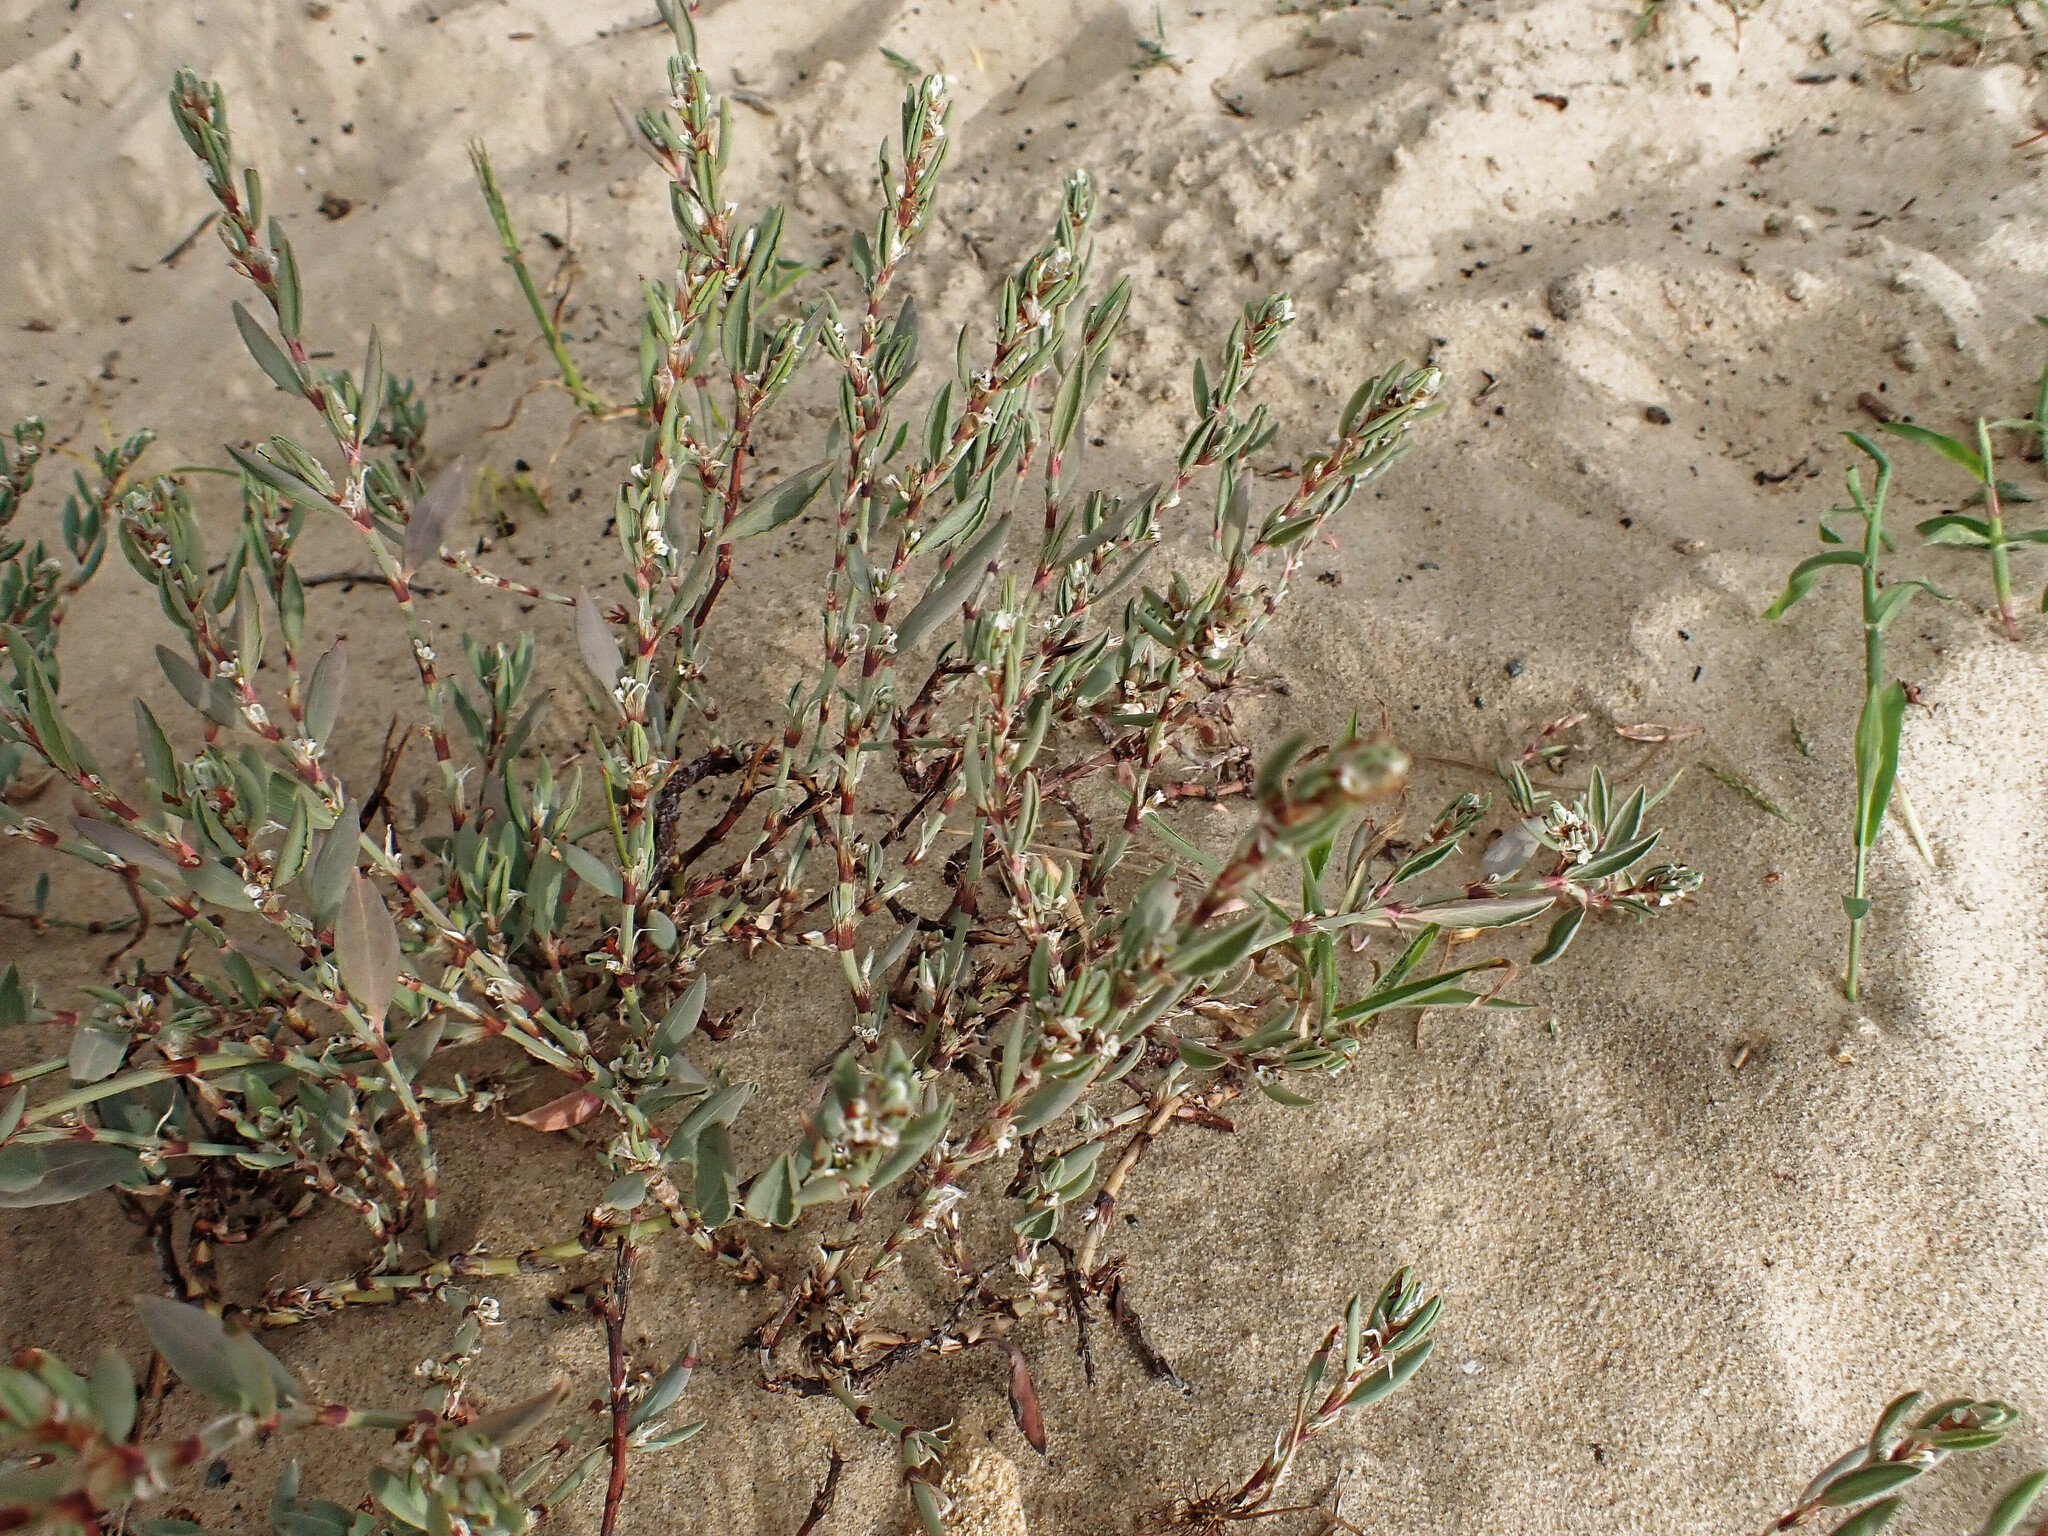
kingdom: Plantae
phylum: Tracheophyta
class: Magnoliopsida
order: Caryophyllales
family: Polygonaceae
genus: Polygonum
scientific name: Polygonum maritimum
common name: Sea knotgrass
